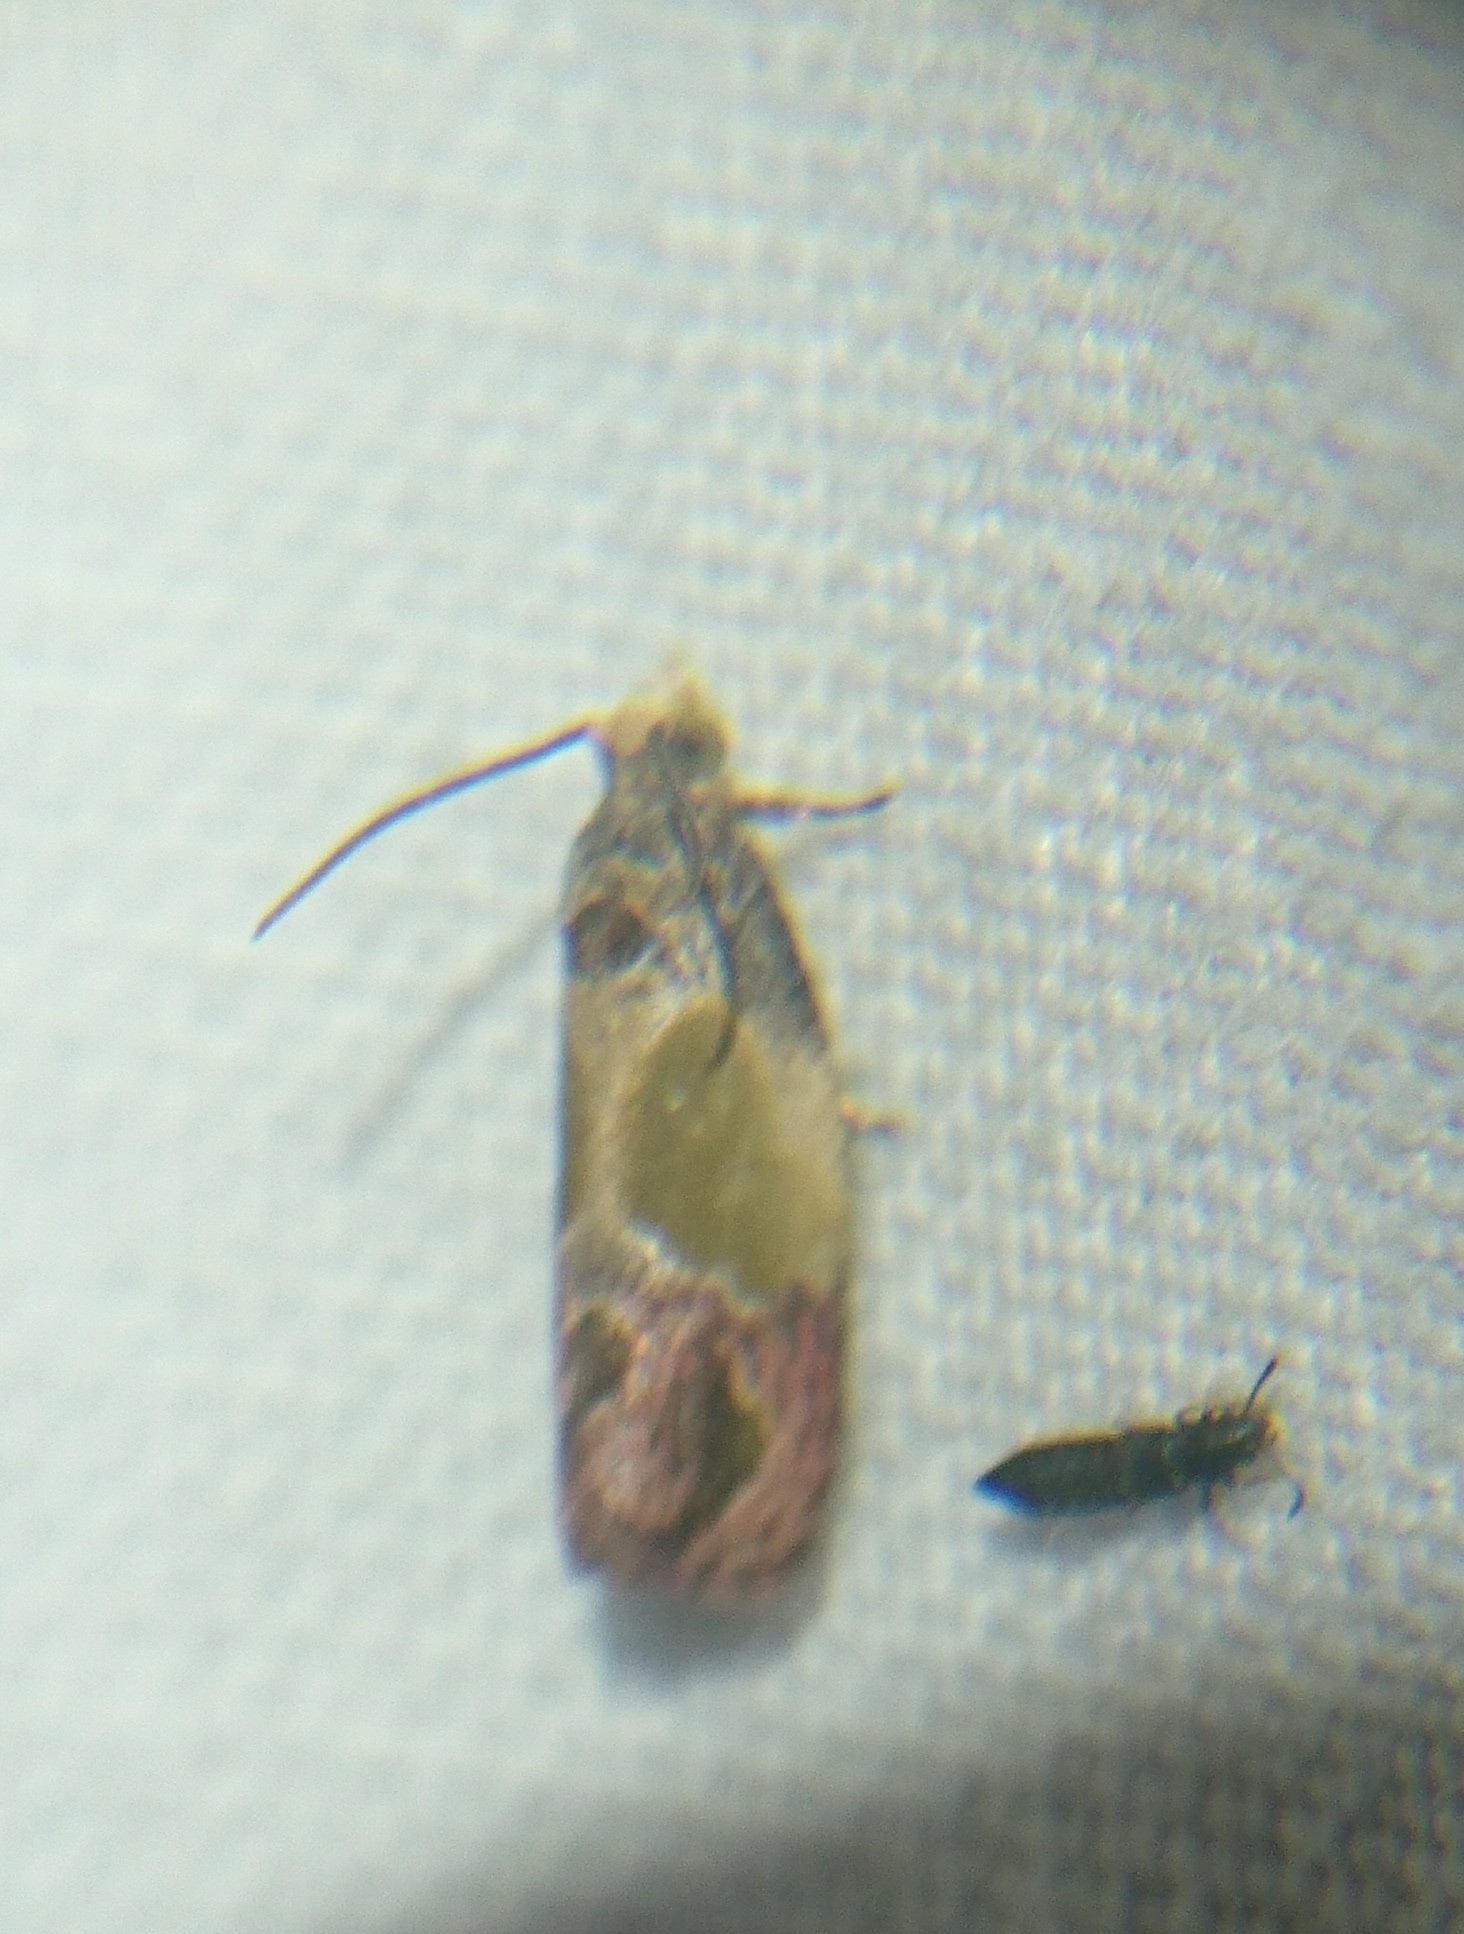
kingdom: Animalia
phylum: Arthropoda
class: Insecta
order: Lepidoptera
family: Tortricidae
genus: Eumarozia
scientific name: Eumarozia malachitana
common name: Sculptured moth
